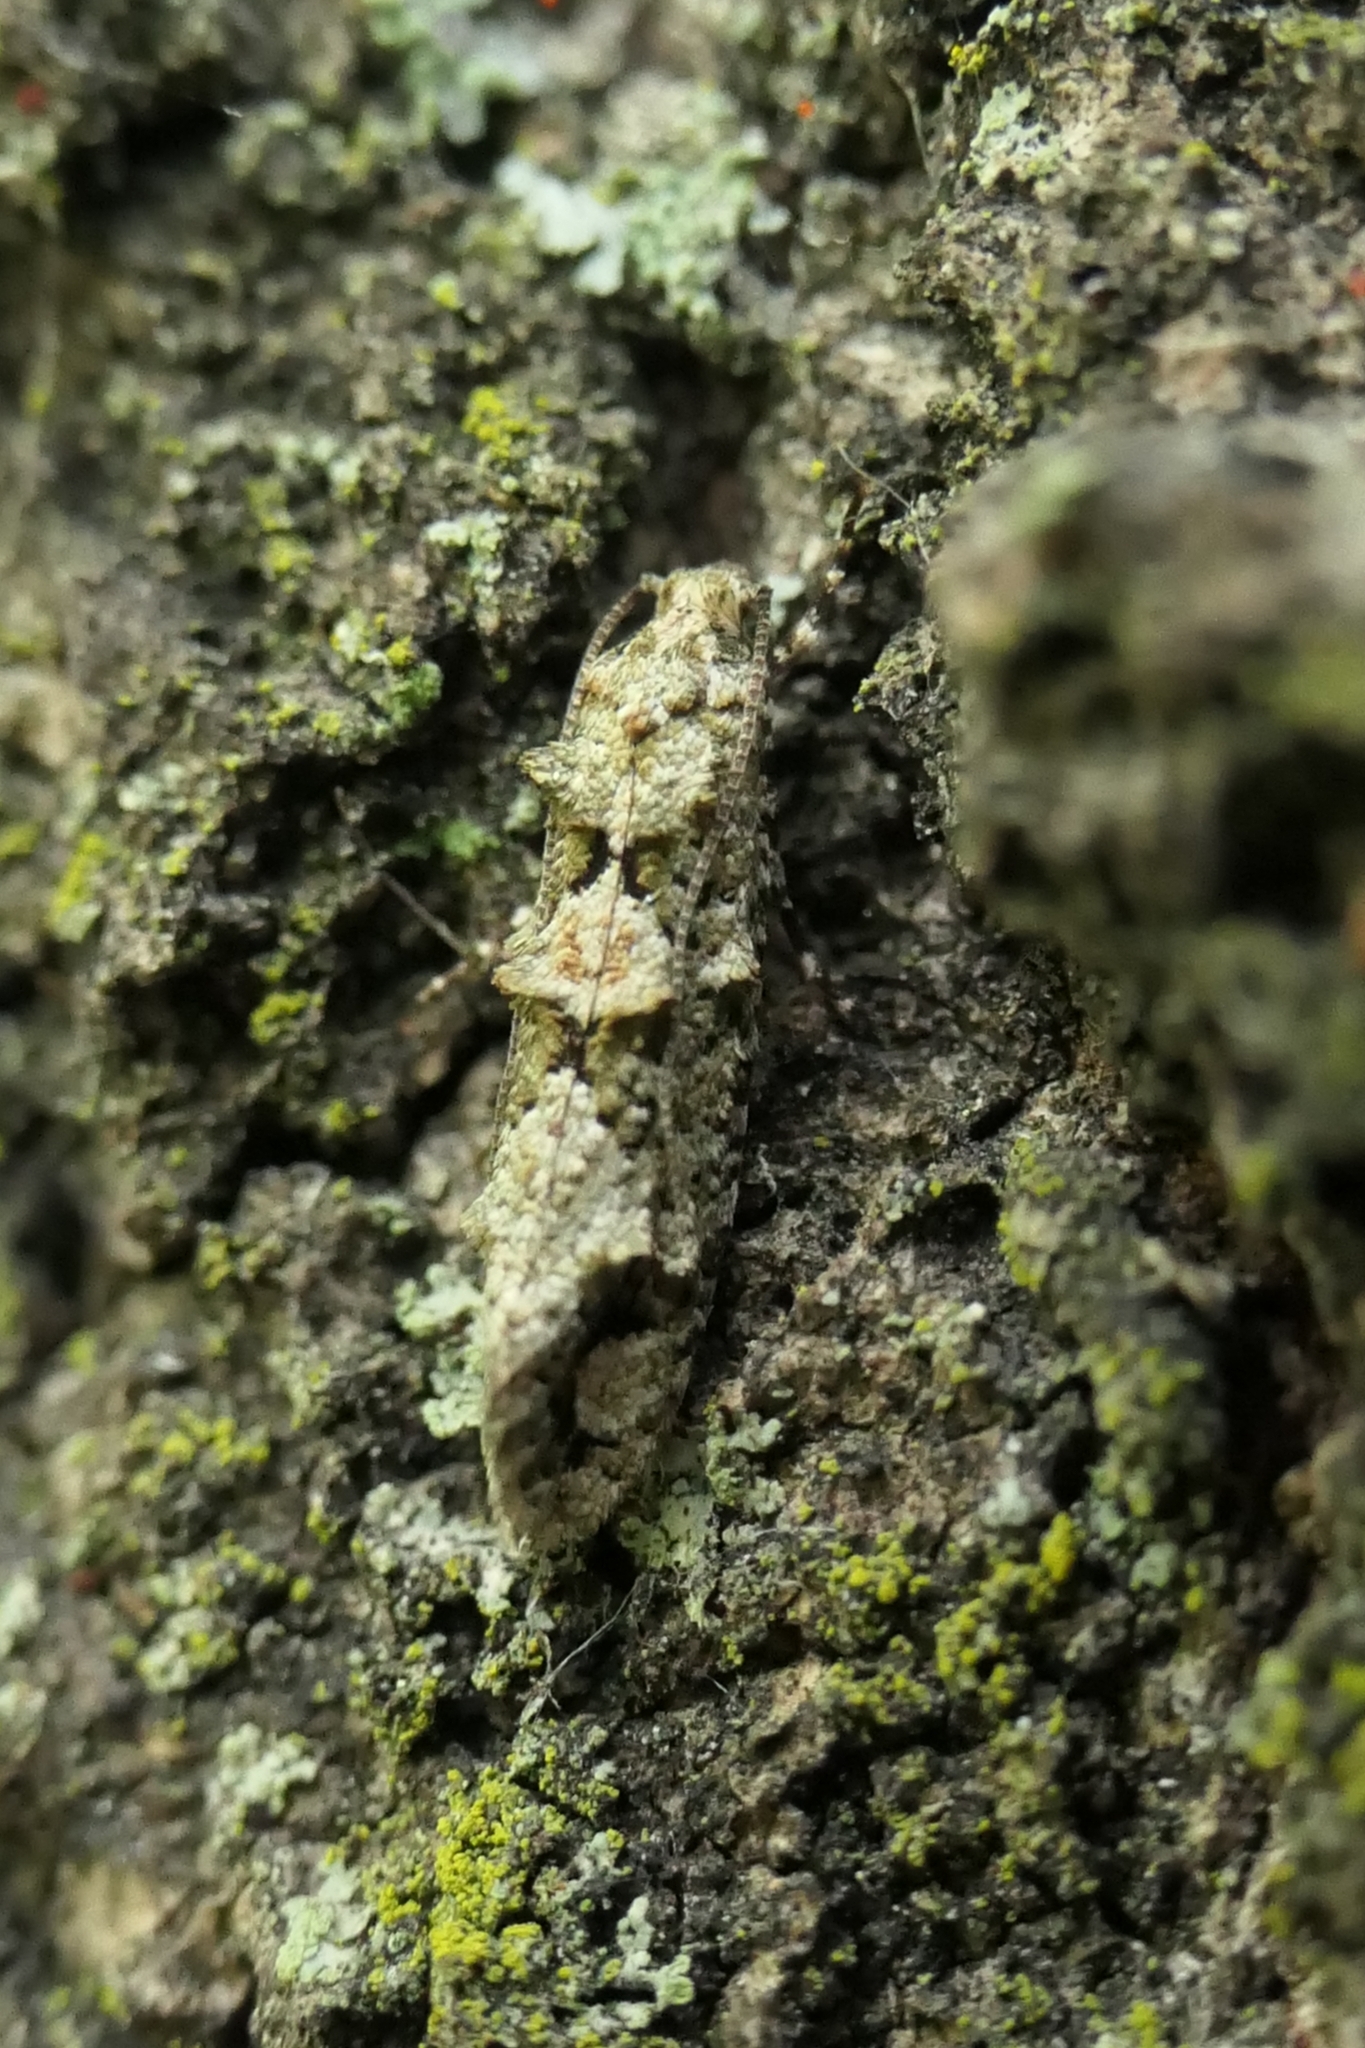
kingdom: Animalia
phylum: Arthropoda
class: Insecta
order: Lepidoptera
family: Tineidae
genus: Lysiphragma
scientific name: Lysiphragma howesii
